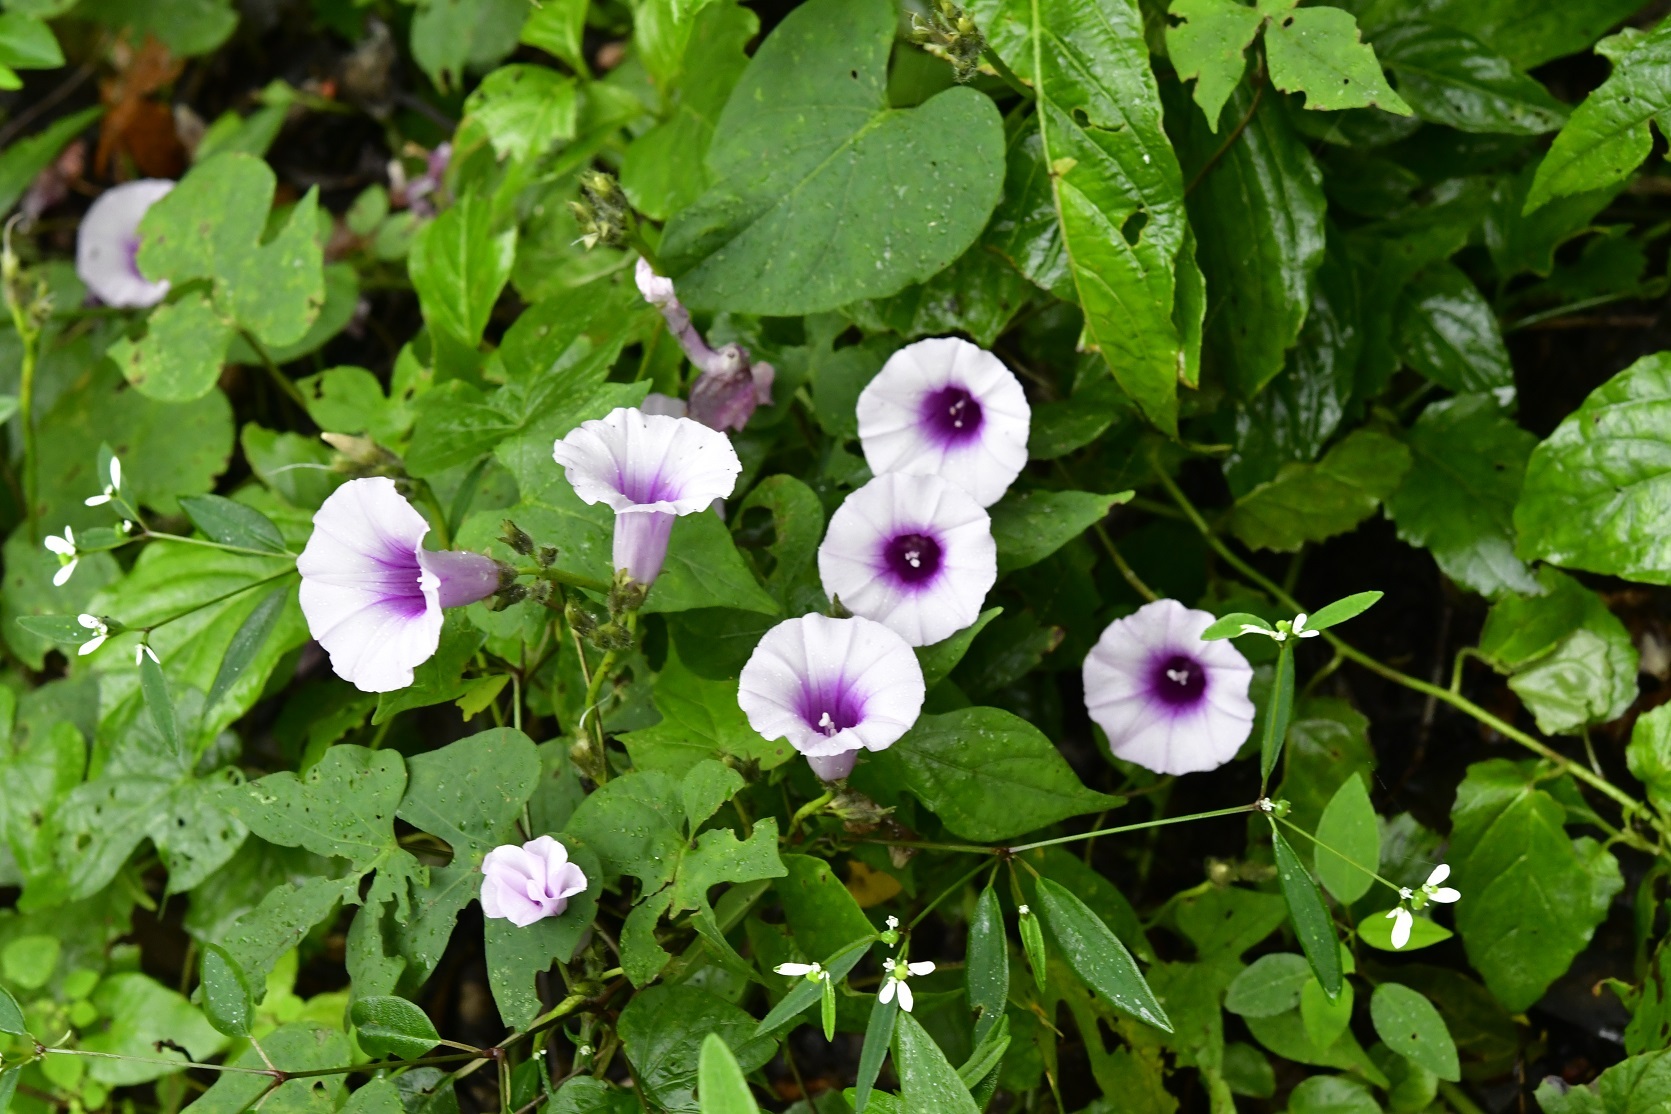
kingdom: Plantae
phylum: Tracheophyta
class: Magnoliopsida
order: Solanales
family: Convolvulaceae
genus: Ipomoea
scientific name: Ipomoea batatas
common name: Sweet-potato
